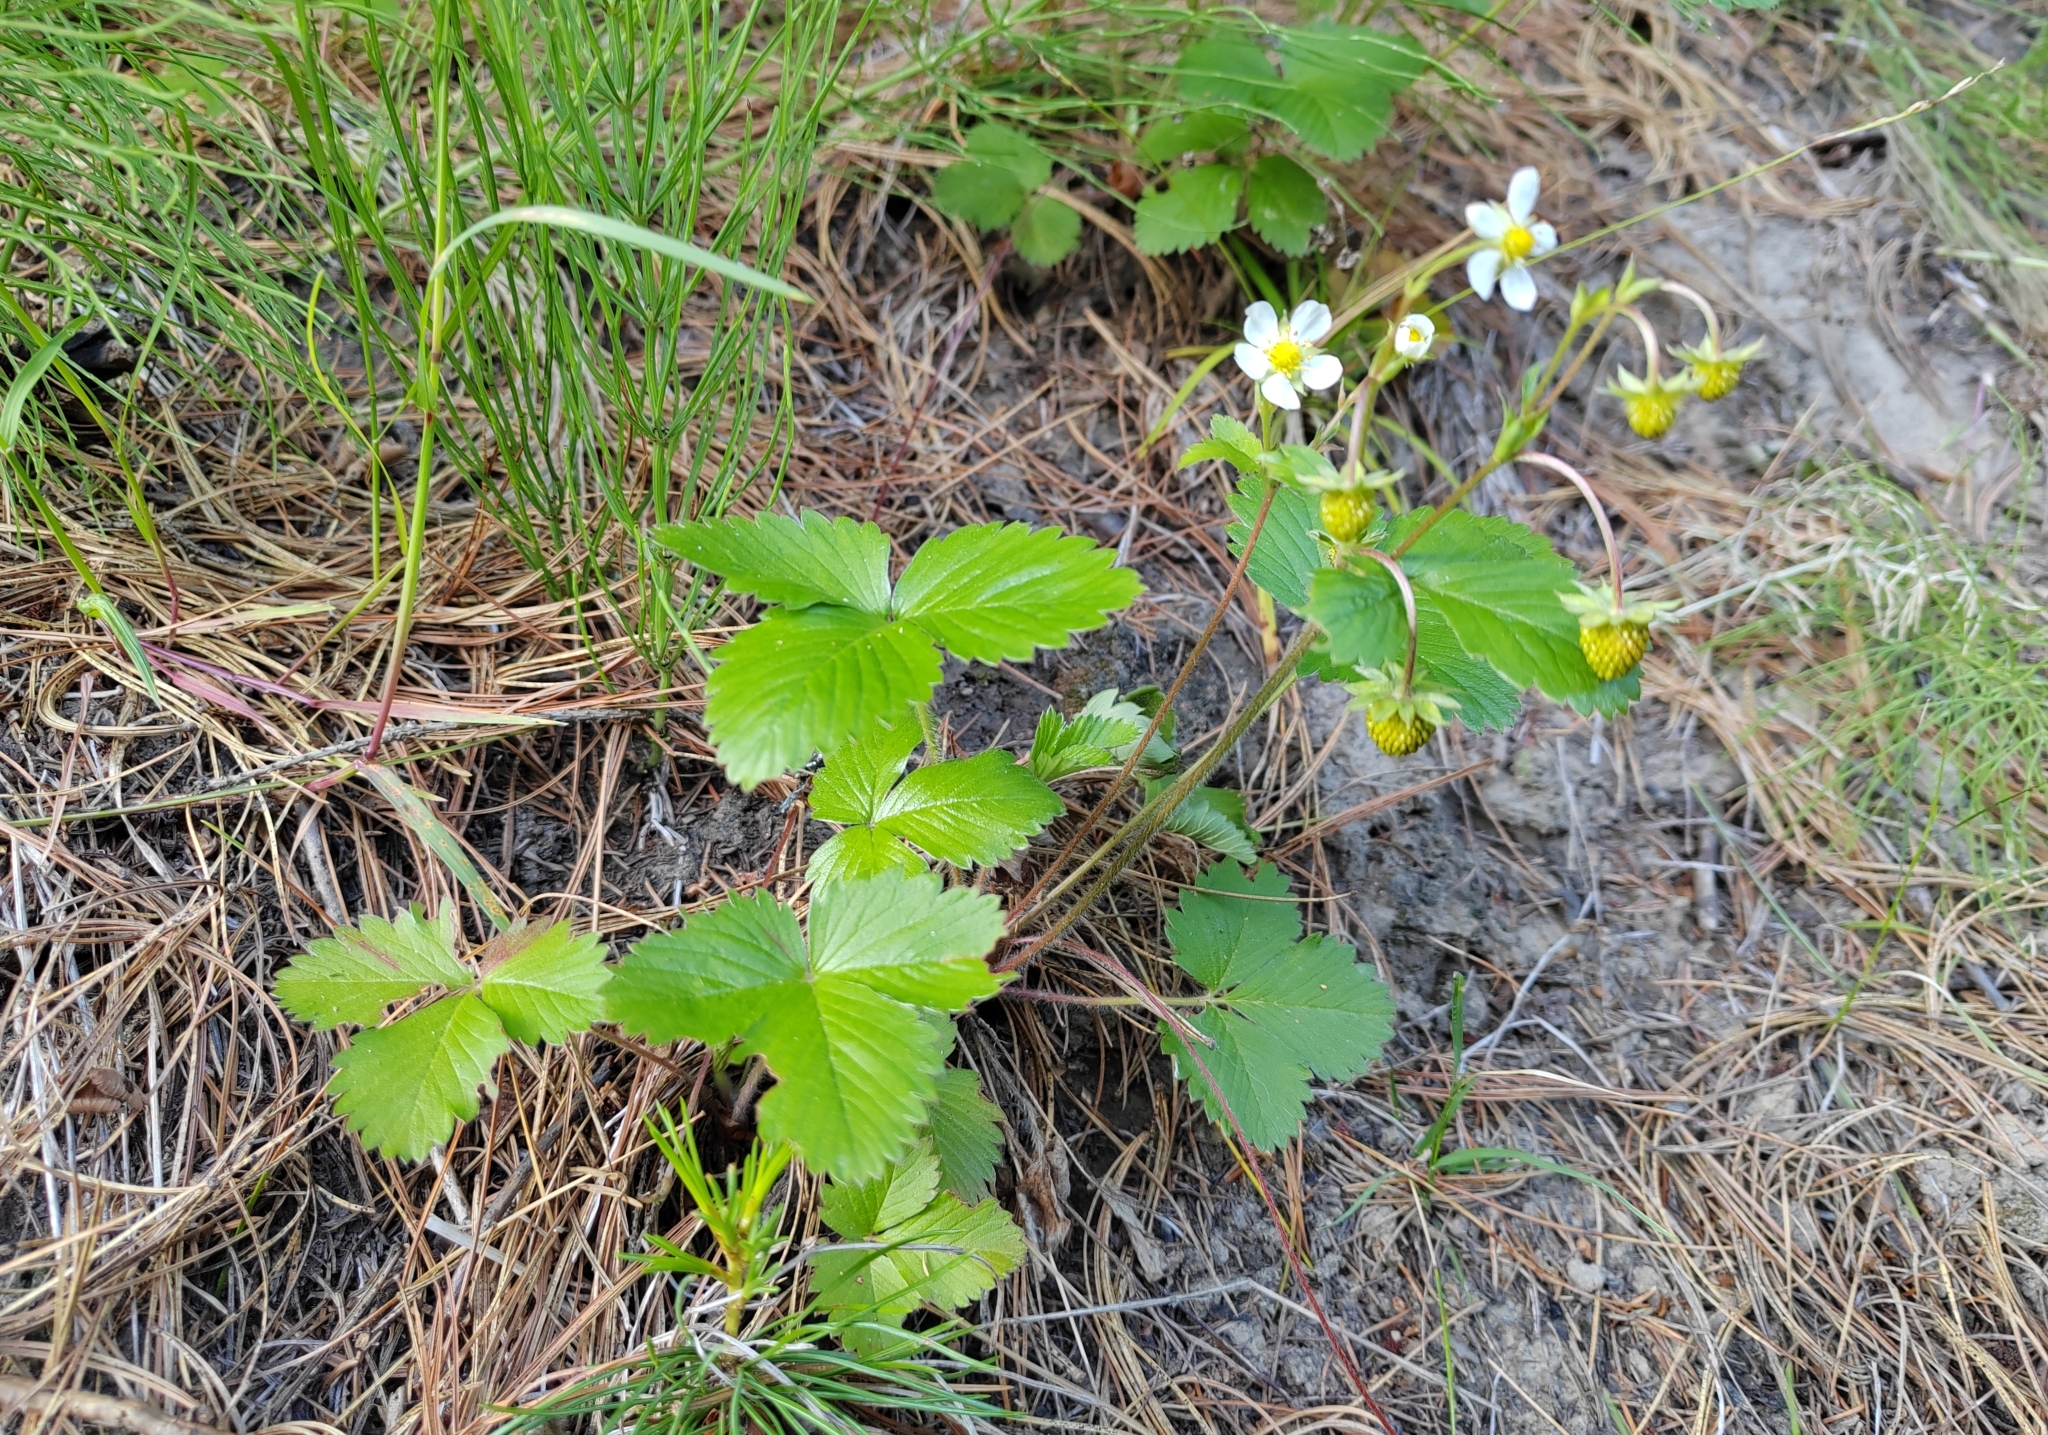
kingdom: Plantae
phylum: Tracheophyta
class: Magnoliopsida
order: Rosales
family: Rosaceae
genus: Fragaria
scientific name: Fragaria vesca
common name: Wild strawberry
